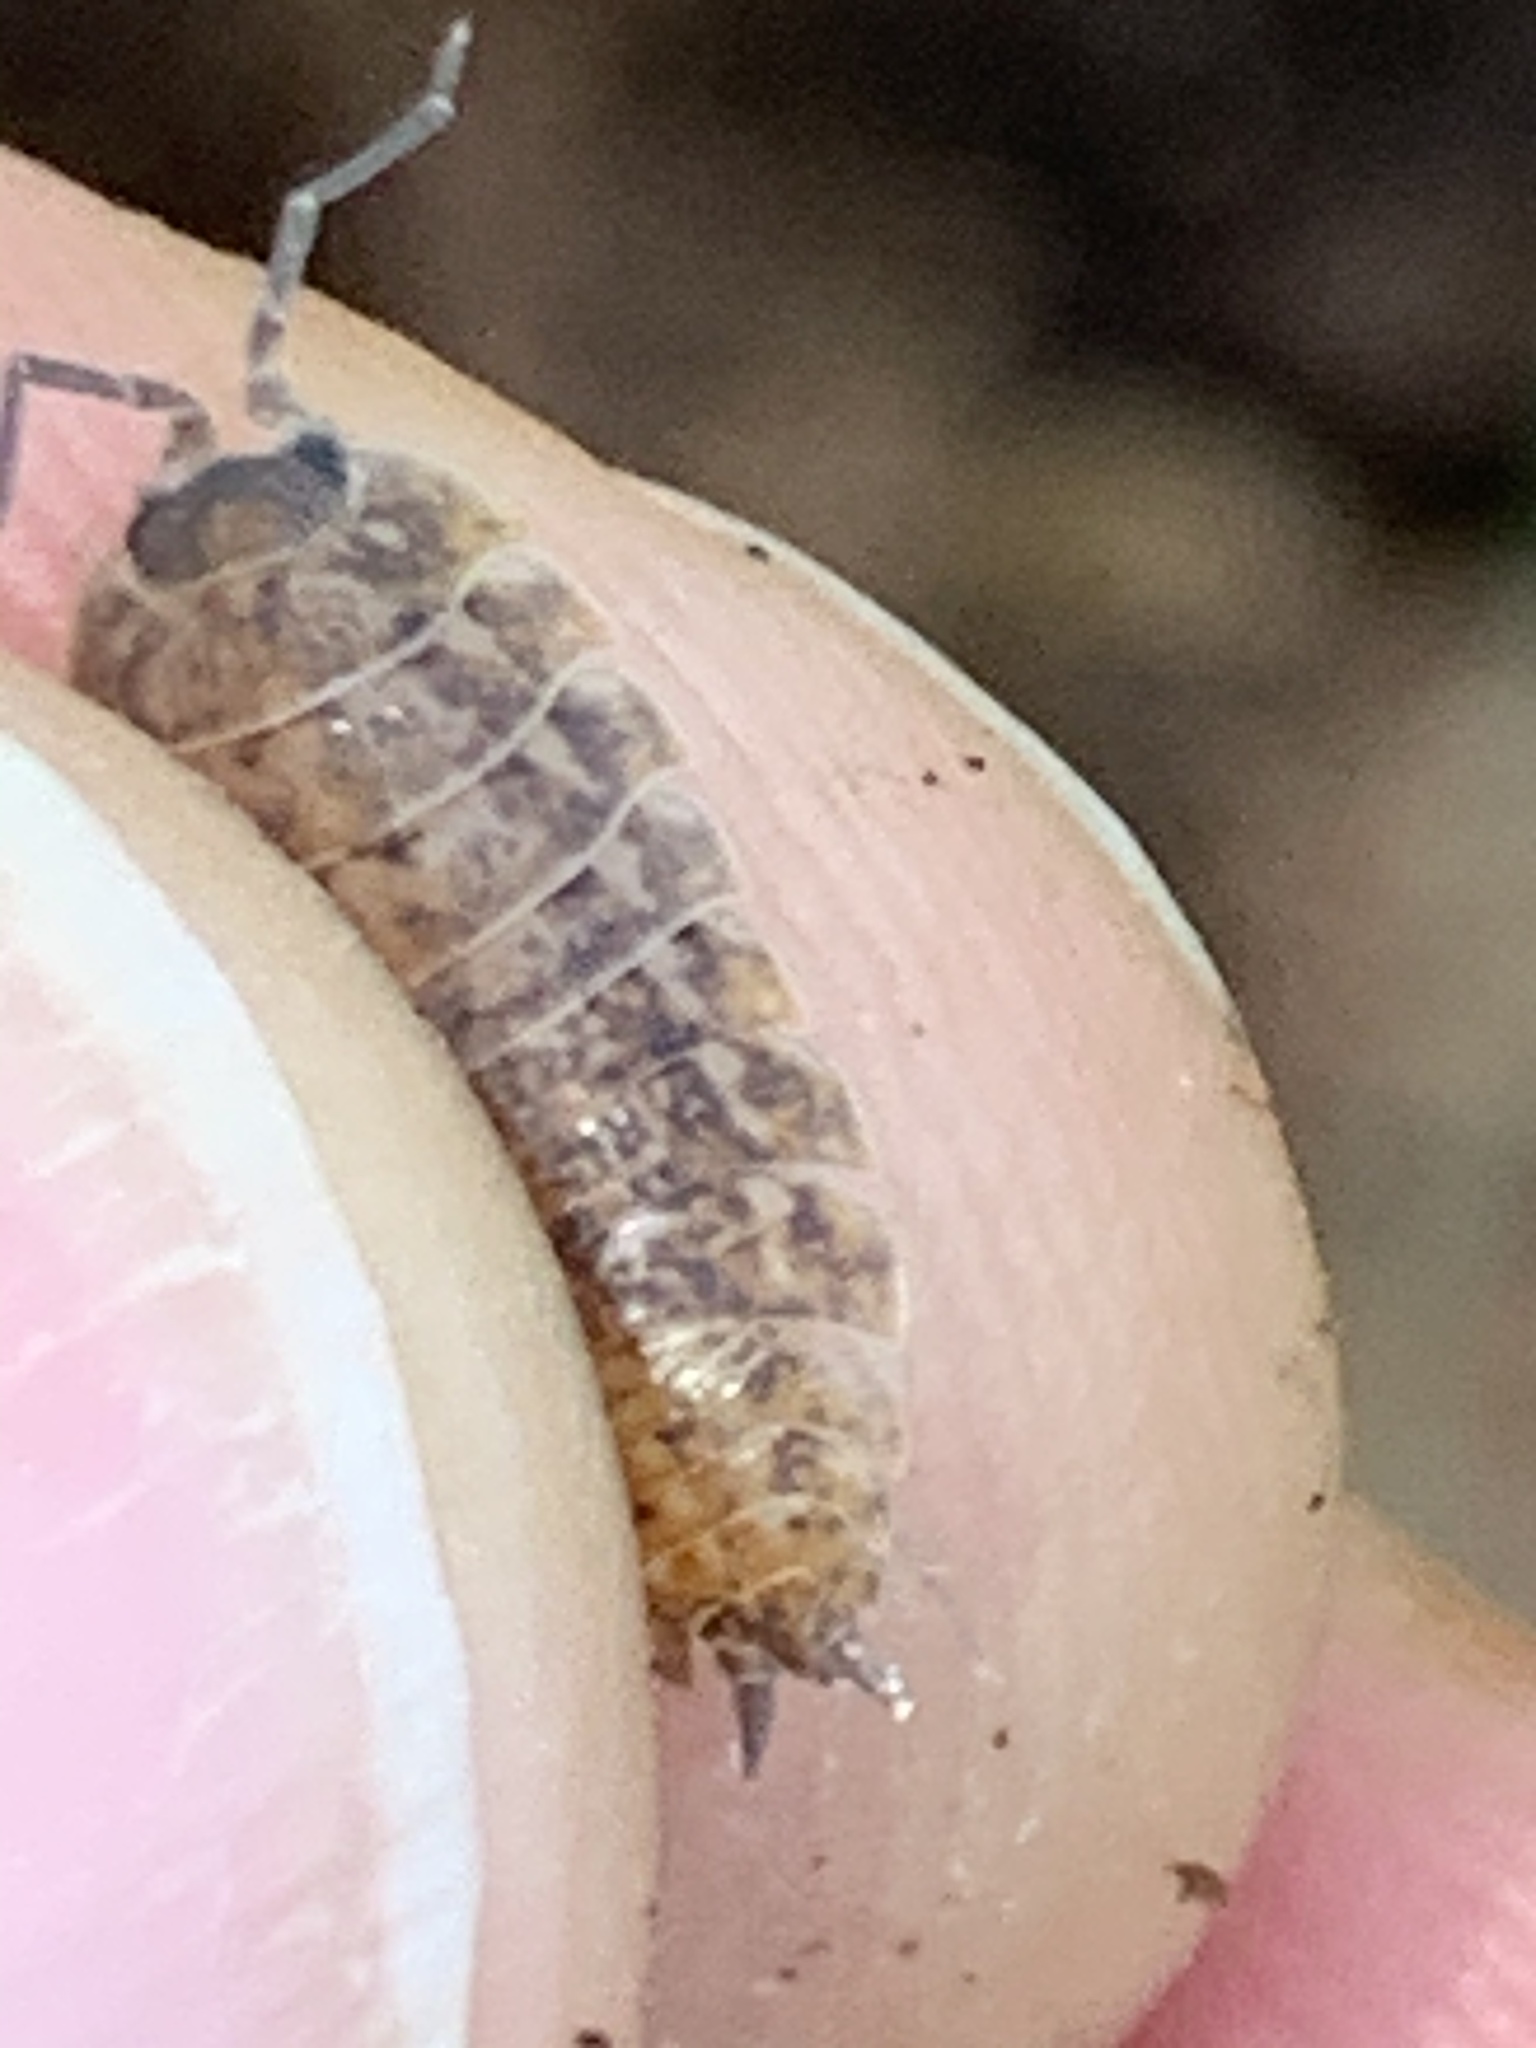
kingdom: Animalia
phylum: Arthropoda
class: Malacostraca
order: Isopoda
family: Trachelipodidae
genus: Trachelipus
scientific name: Trachelipus rathkii
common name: Isopod
